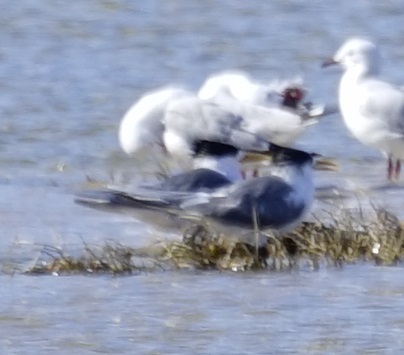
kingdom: Animalia
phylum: Chordata
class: Aves
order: Charadriiformes
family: Laridae
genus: Thalasseus
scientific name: Thalasseus bergii
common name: Greater crested tern
